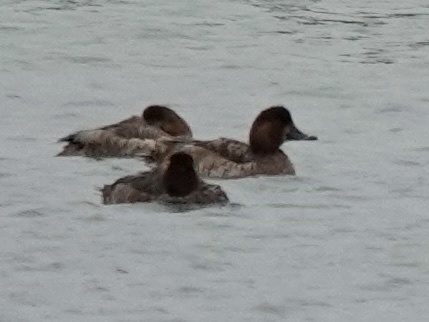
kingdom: Animalia
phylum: Chordata
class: Aves
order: Anseriformes
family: Anatidae
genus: Aythya
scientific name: Aythya americana
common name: Redhead
